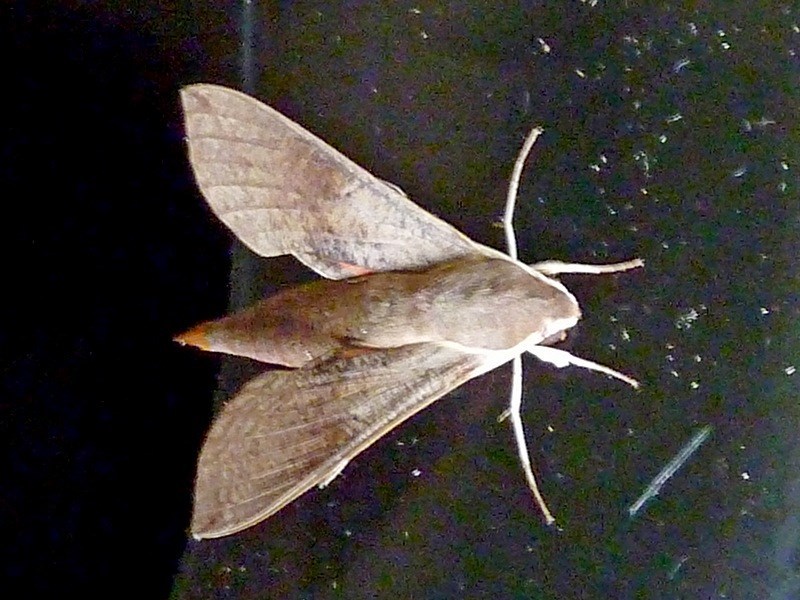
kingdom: Animalia
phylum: Arthropoda
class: Insecta
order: Lepidoptera
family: Sphingidae
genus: Hippotion
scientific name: Hippotion scrofa
